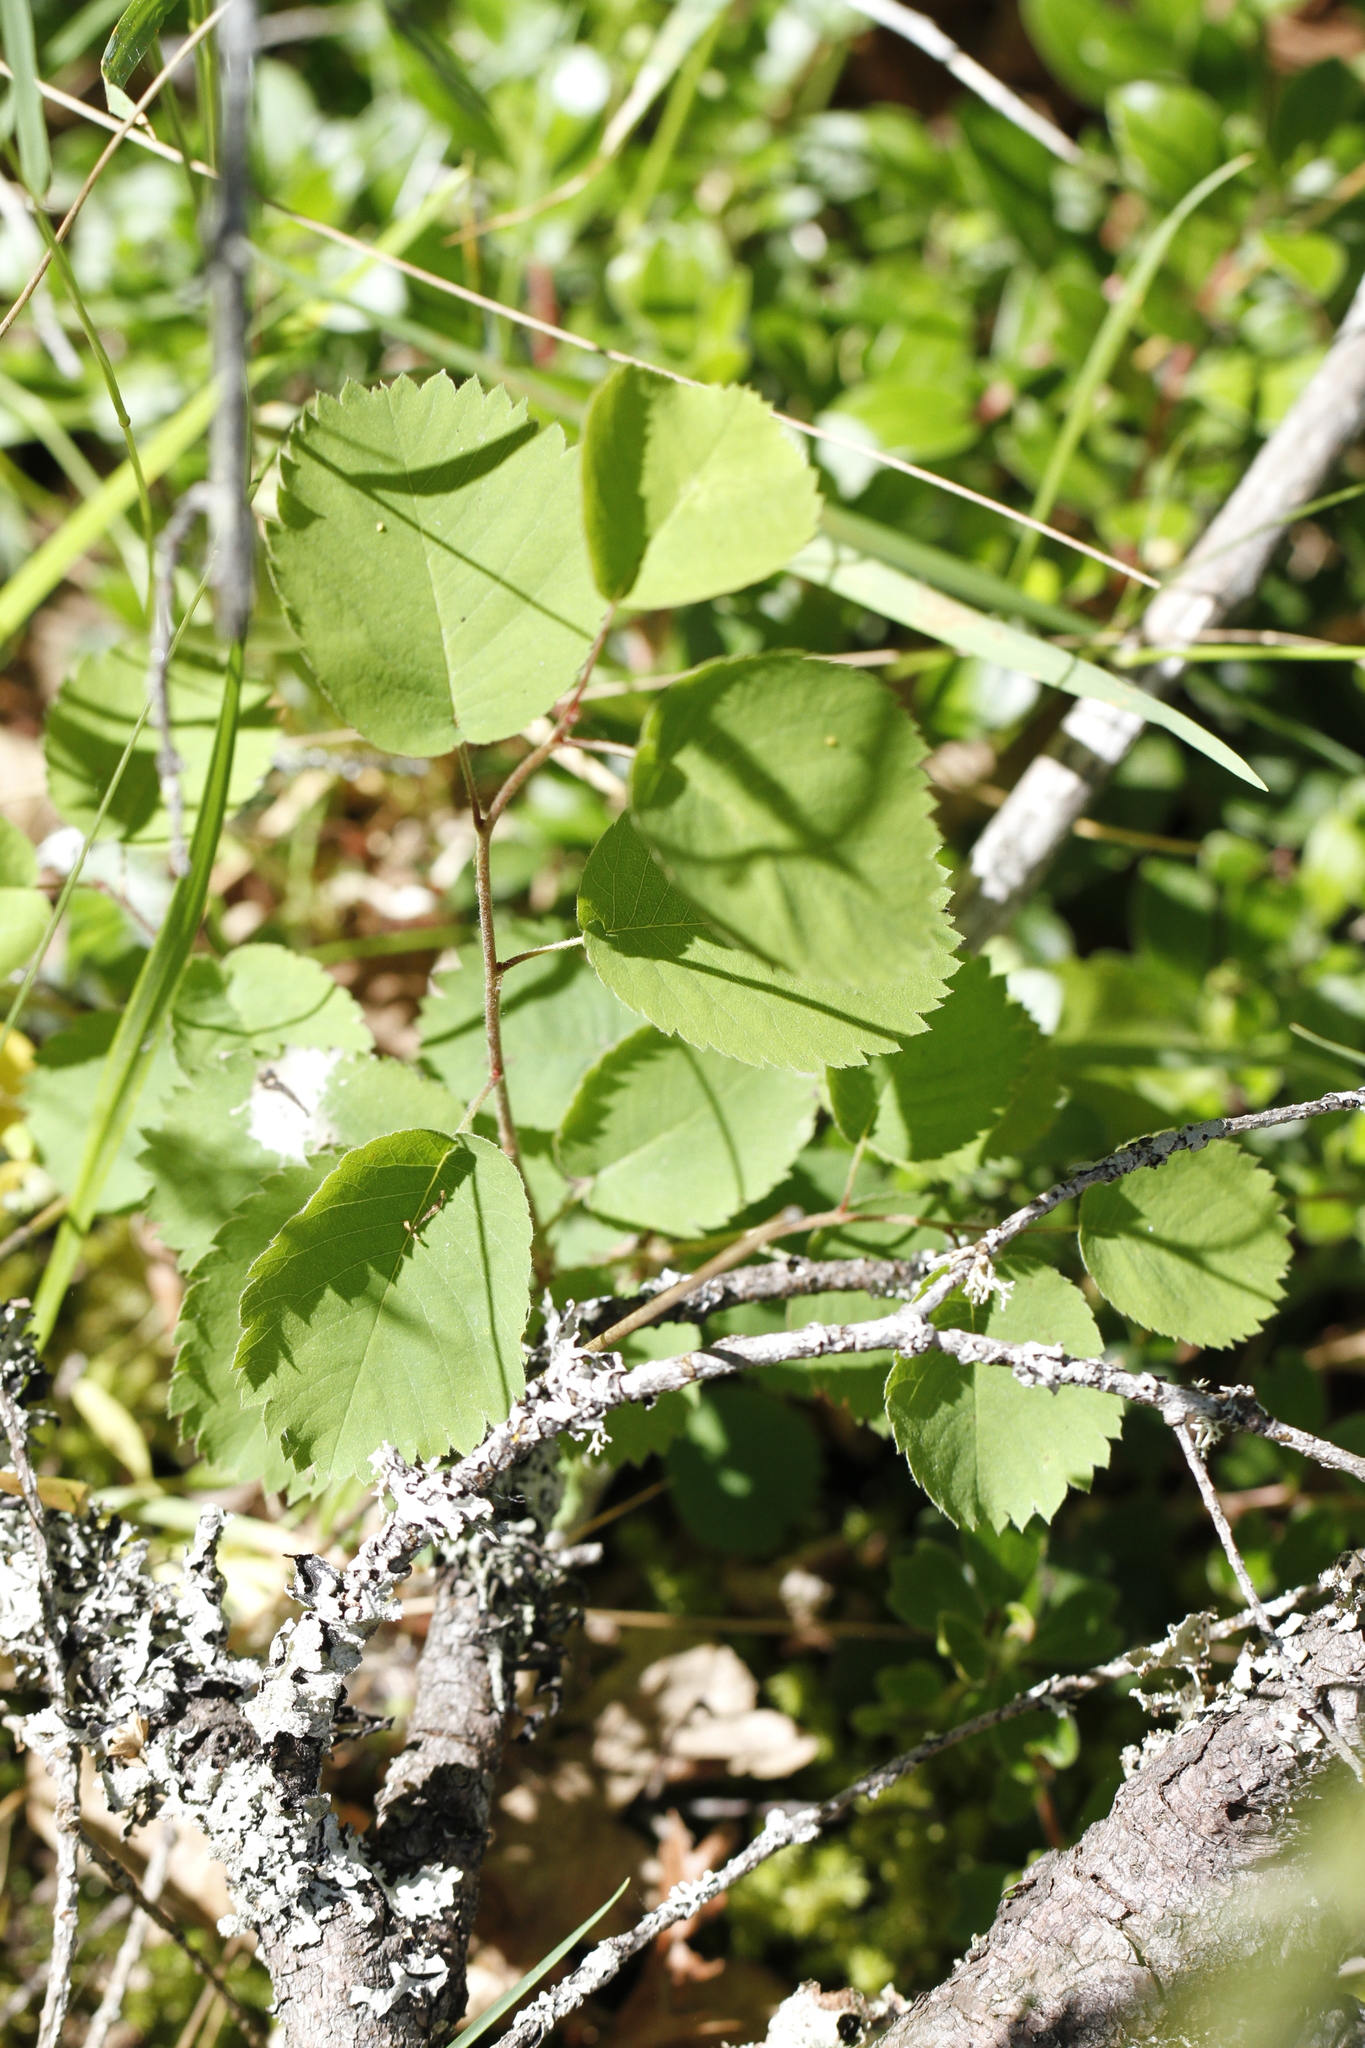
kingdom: Plantae
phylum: Tracheophyta
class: Magnoliopsida
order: Rosales
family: Rosaceae
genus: Amelanchier
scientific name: Amelanchier alnifolia
